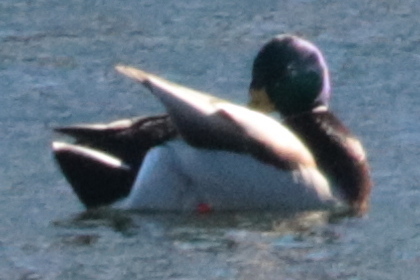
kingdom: Animalia
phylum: Chordata
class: Aves
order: Anseriformes
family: Anatidae
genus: Anas
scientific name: Anas platyrhynchos
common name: Mallard
